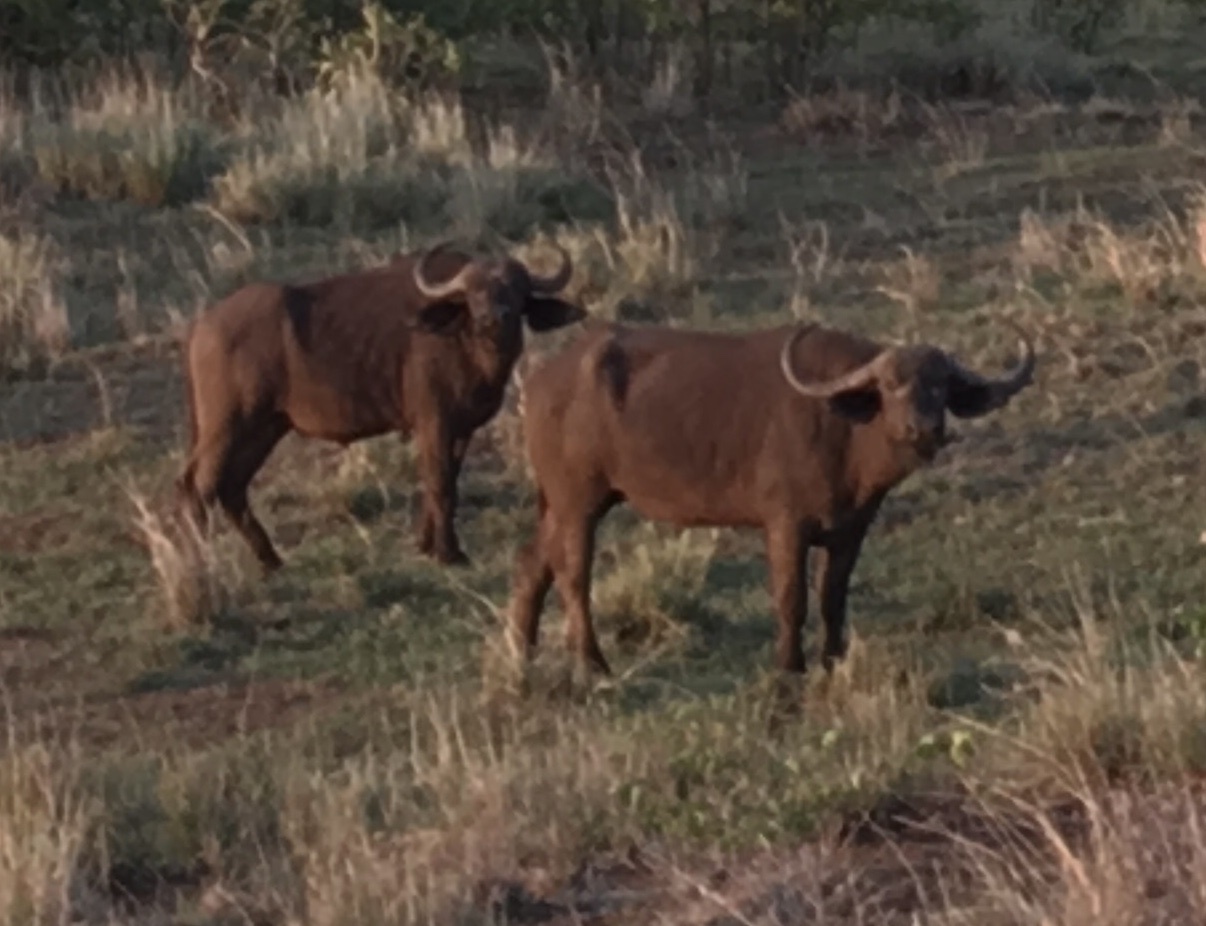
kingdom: Animalia
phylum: Chordata
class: Mammalia
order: Artiodactyla
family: Bovidae
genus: Syncerus
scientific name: Syncerus caffer
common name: African buffalo
